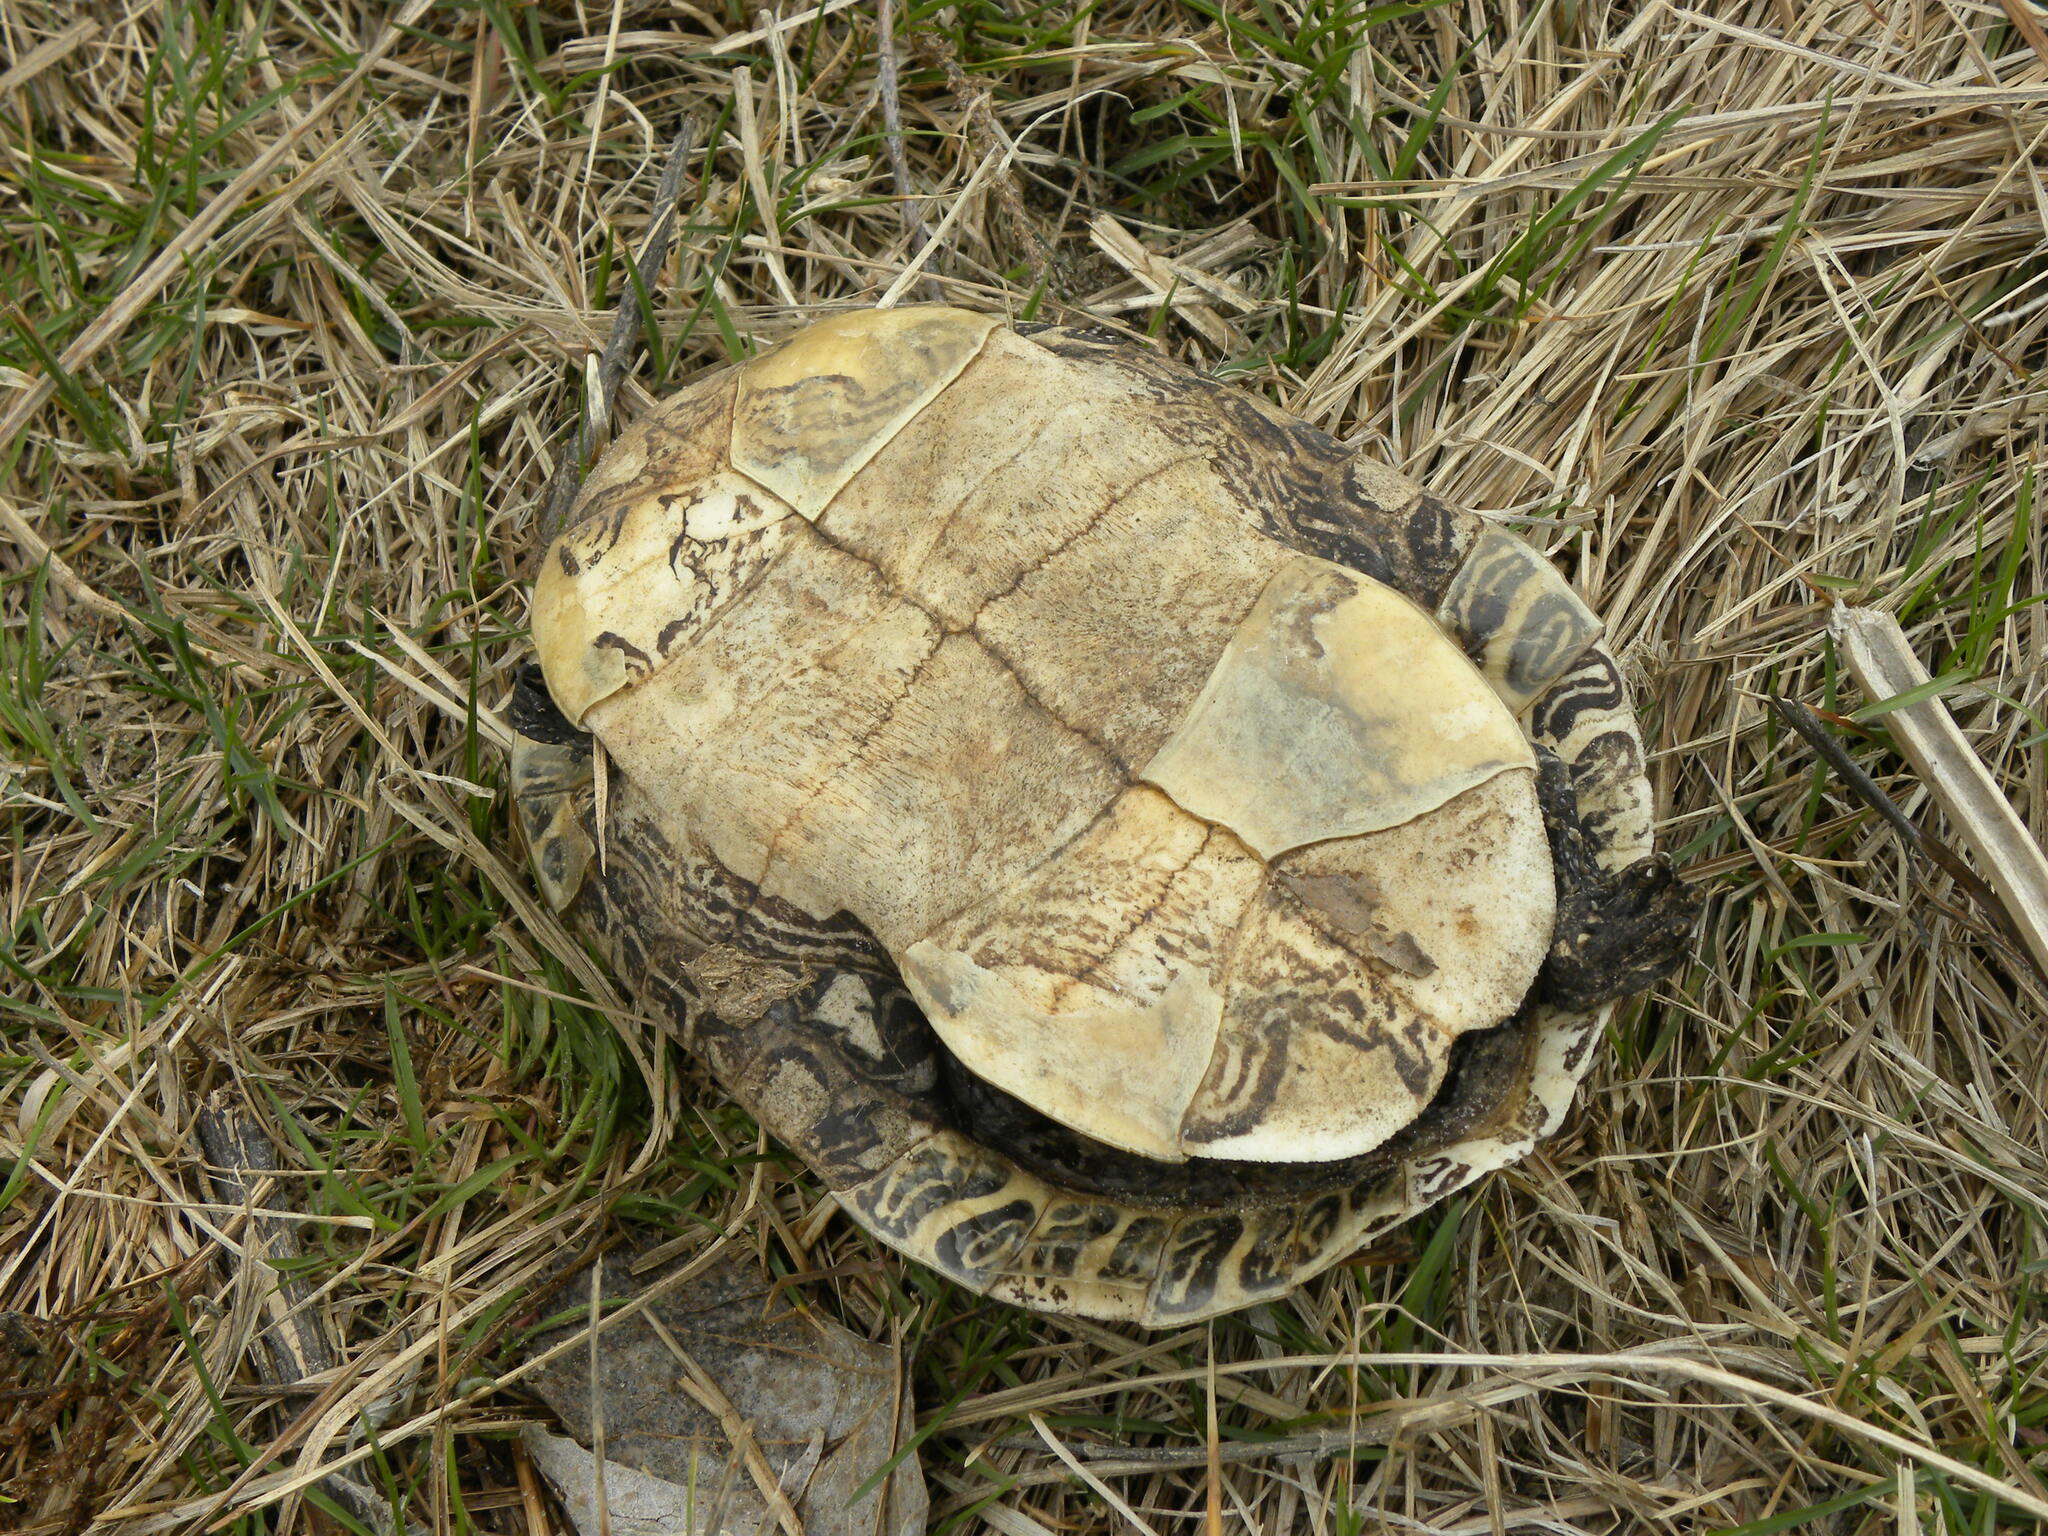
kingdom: Animalia
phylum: Chordata
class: Testudines
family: Emydidae
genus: Chrysemys
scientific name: Chrysemys picta
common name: Painted turtle
